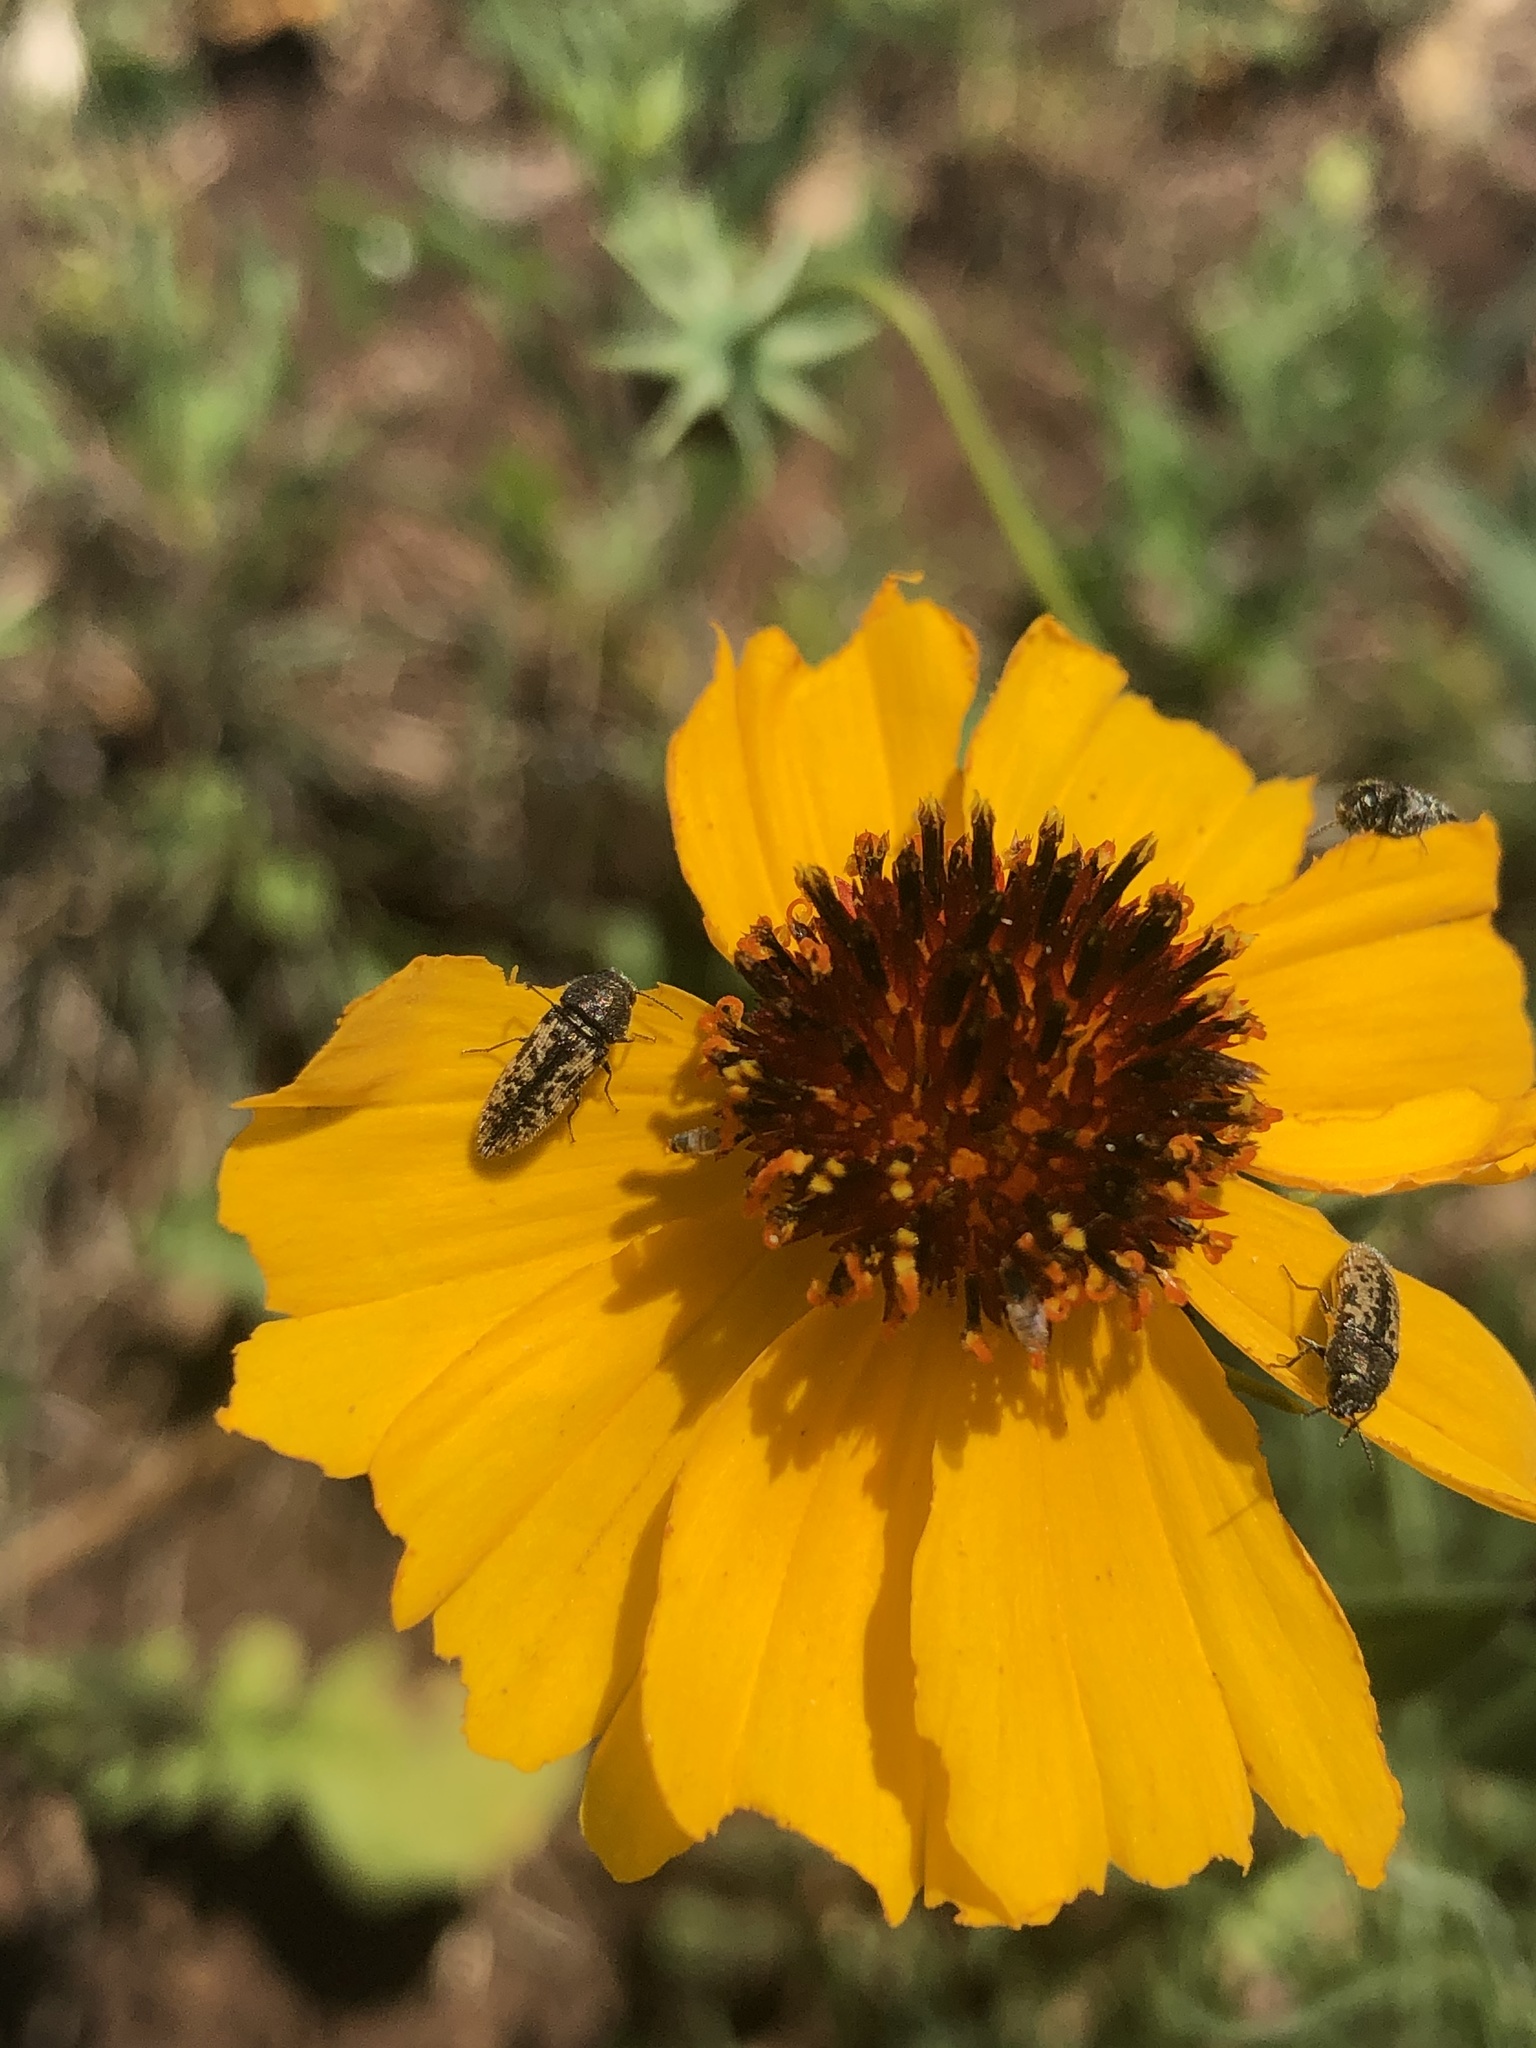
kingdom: Plantae
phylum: Tracheophyta
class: Magnoliopsida
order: Asterales
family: Asteraceae
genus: Thelesperma
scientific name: Thelesperma filifolium
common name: Stiff greenthread
